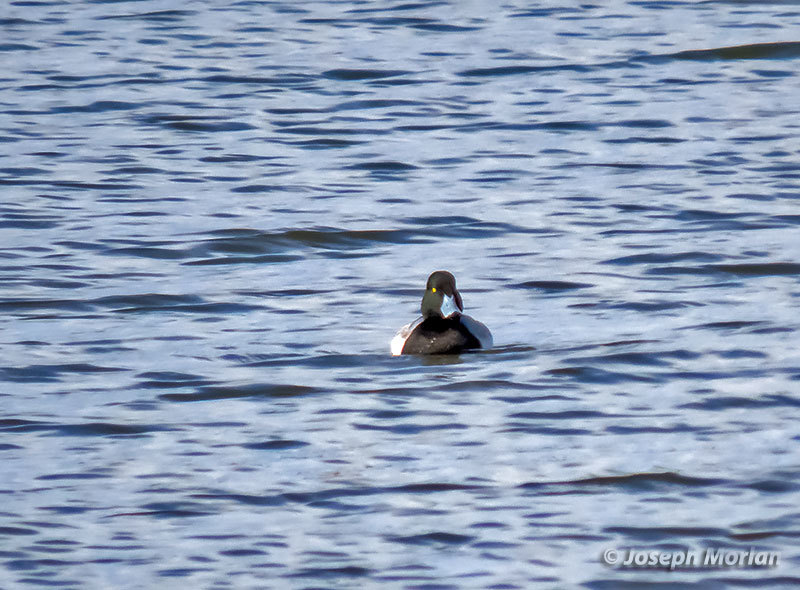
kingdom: Animalia
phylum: Chordata
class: Aves
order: Anseriformes
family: Anatidae
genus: Aythya
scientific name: Aythya marila
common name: Greater scaup
